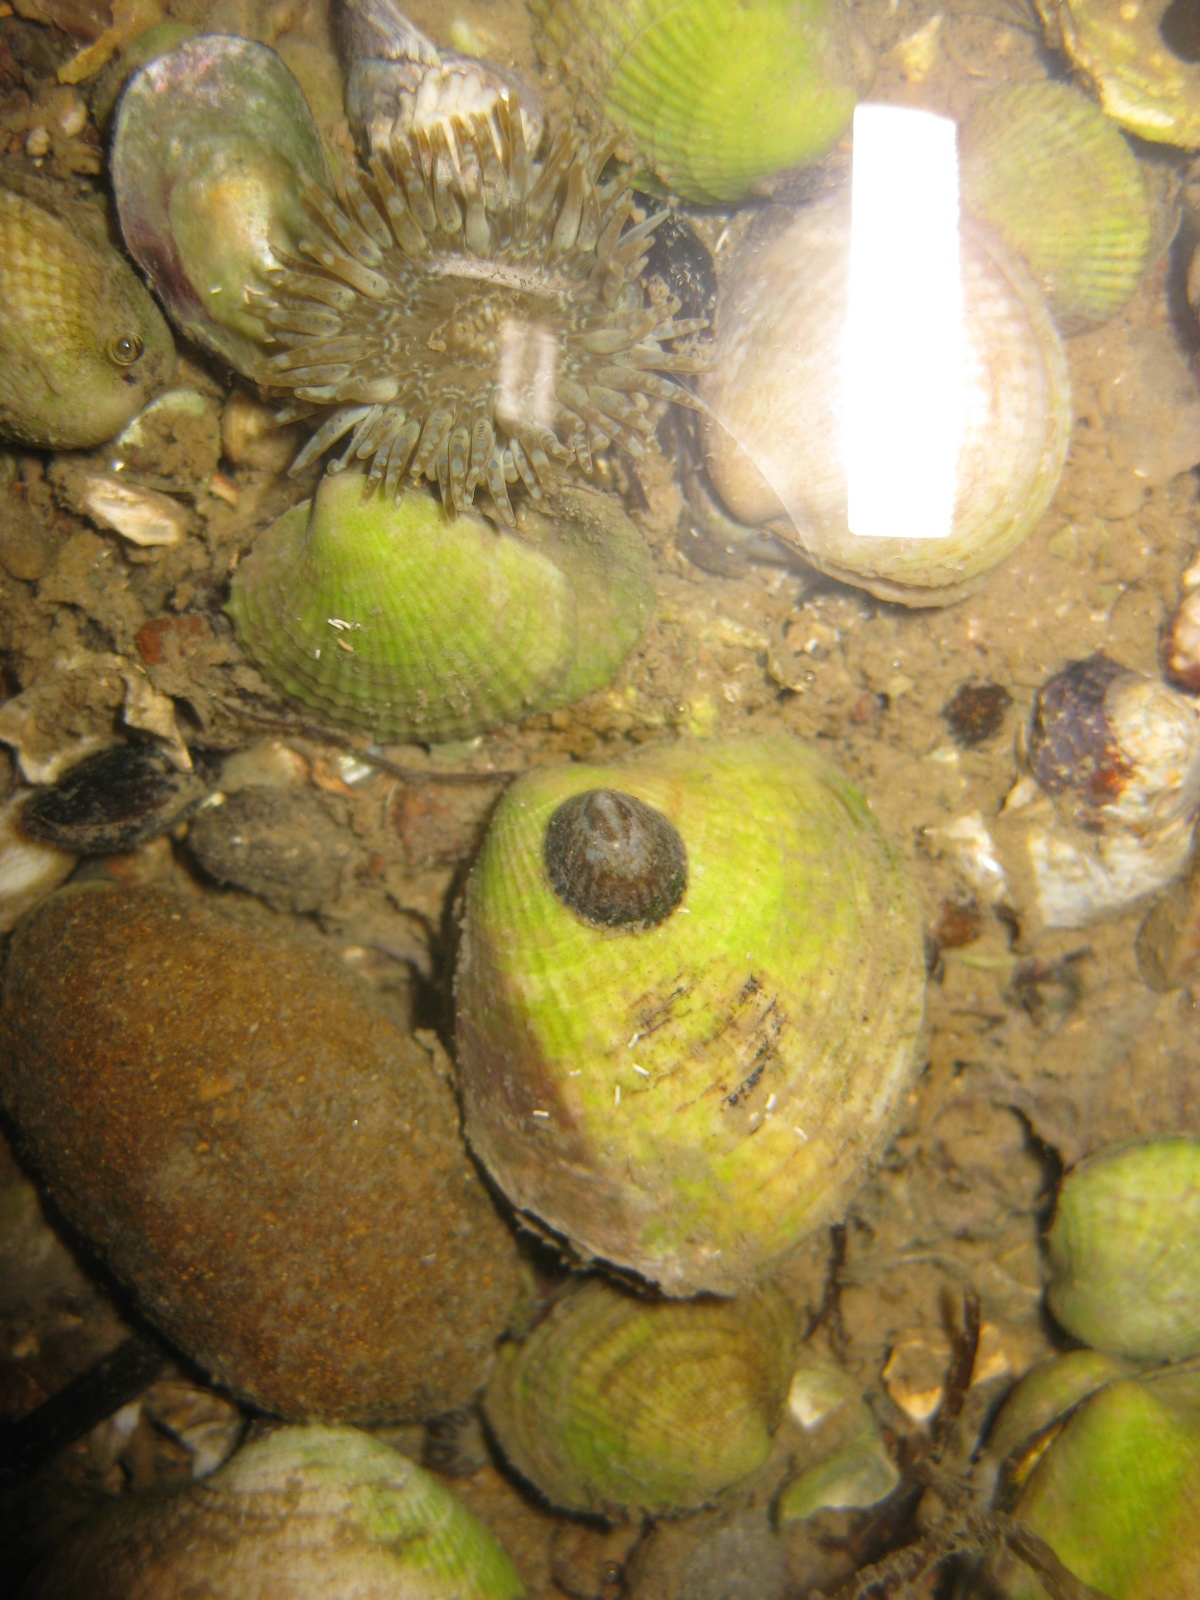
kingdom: Animalia
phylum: Mollusca
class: Gastropoda
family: Lottiidae
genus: Notoacmea
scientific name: Notoacmea scapha
